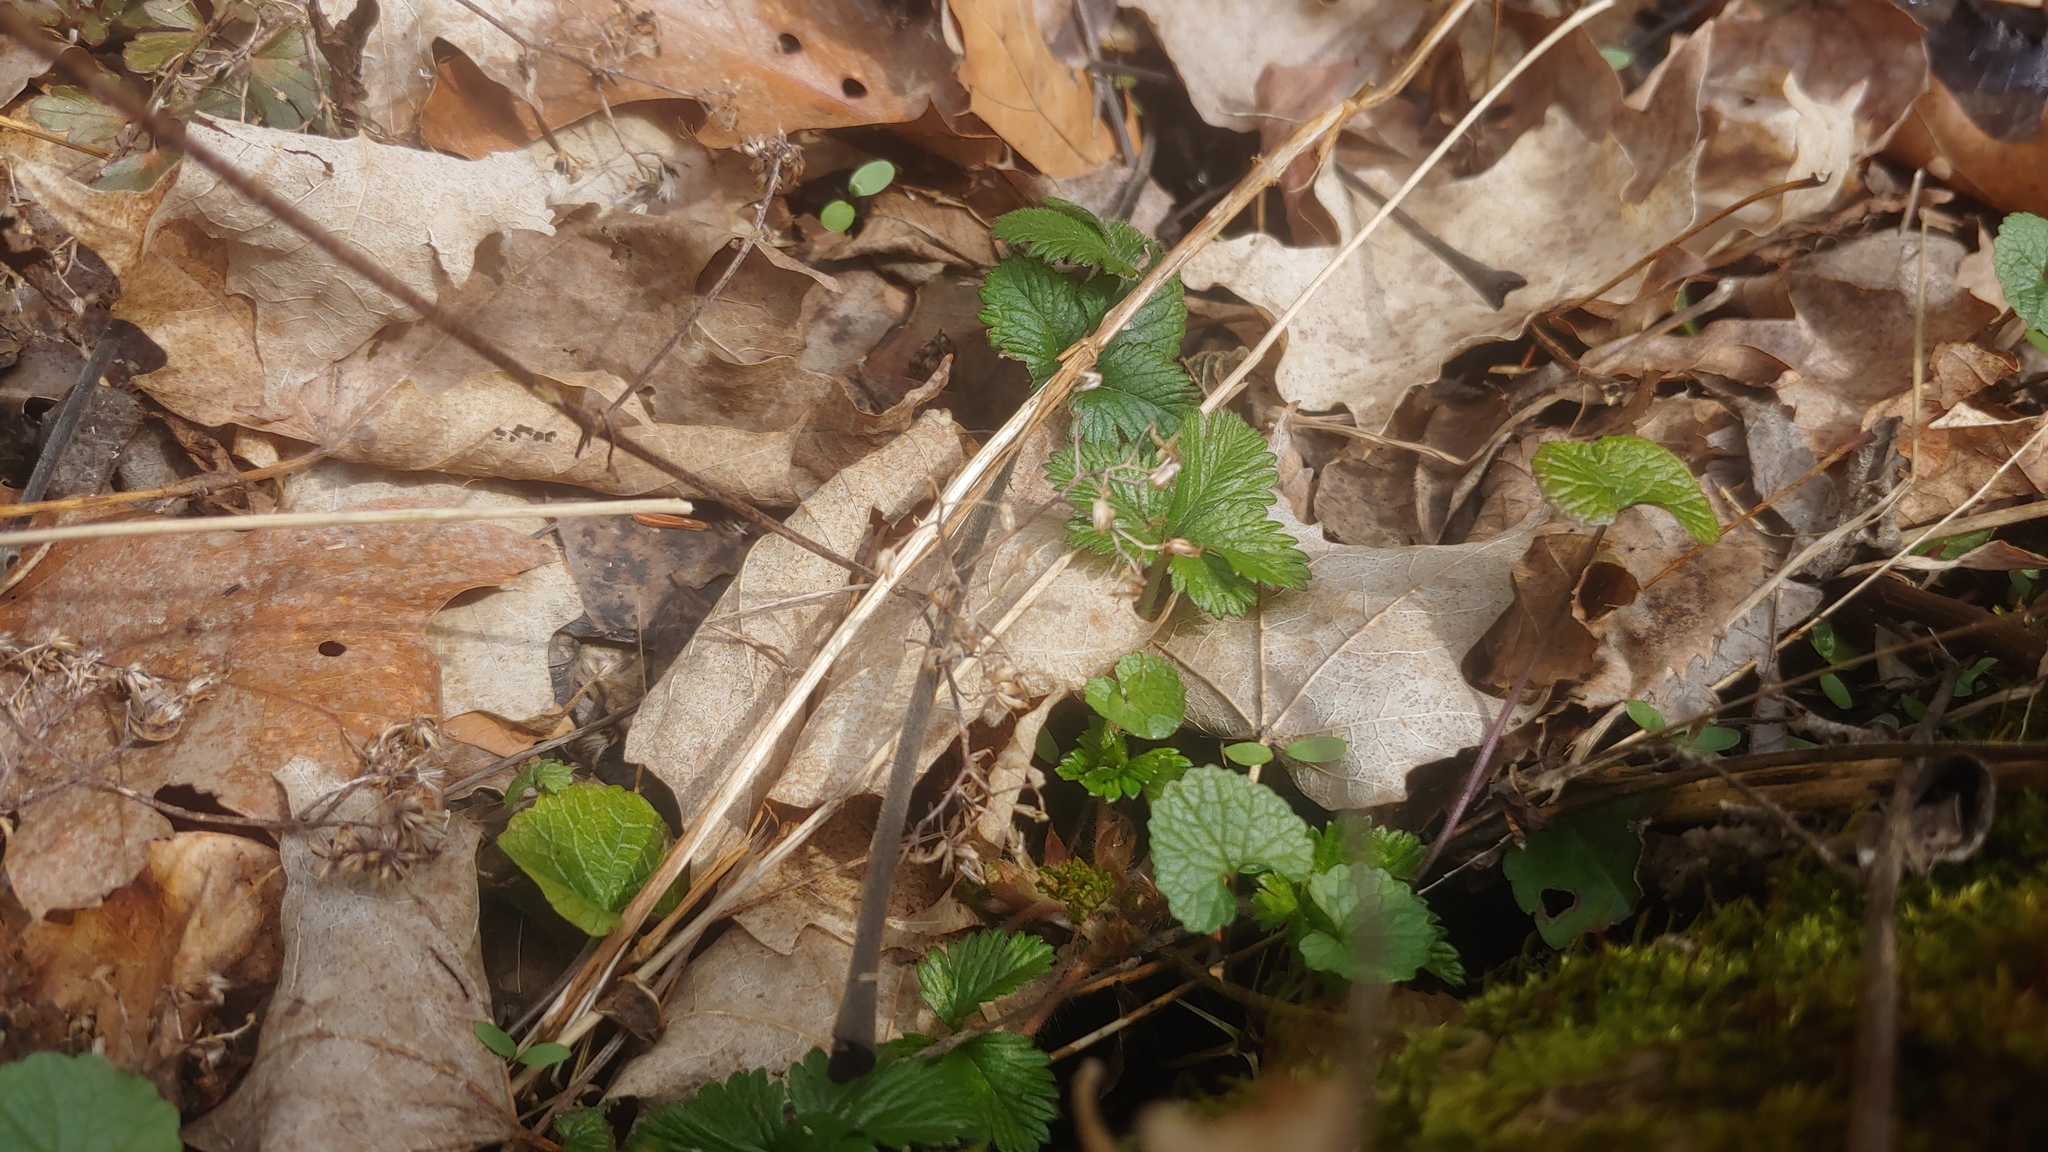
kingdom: Plantae
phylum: Tracheophyta
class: Magnoliopsida
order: Rosales
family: Rosaceae
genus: Potentilla
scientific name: Potentilla indica
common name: Yellow-flowered strawberry
